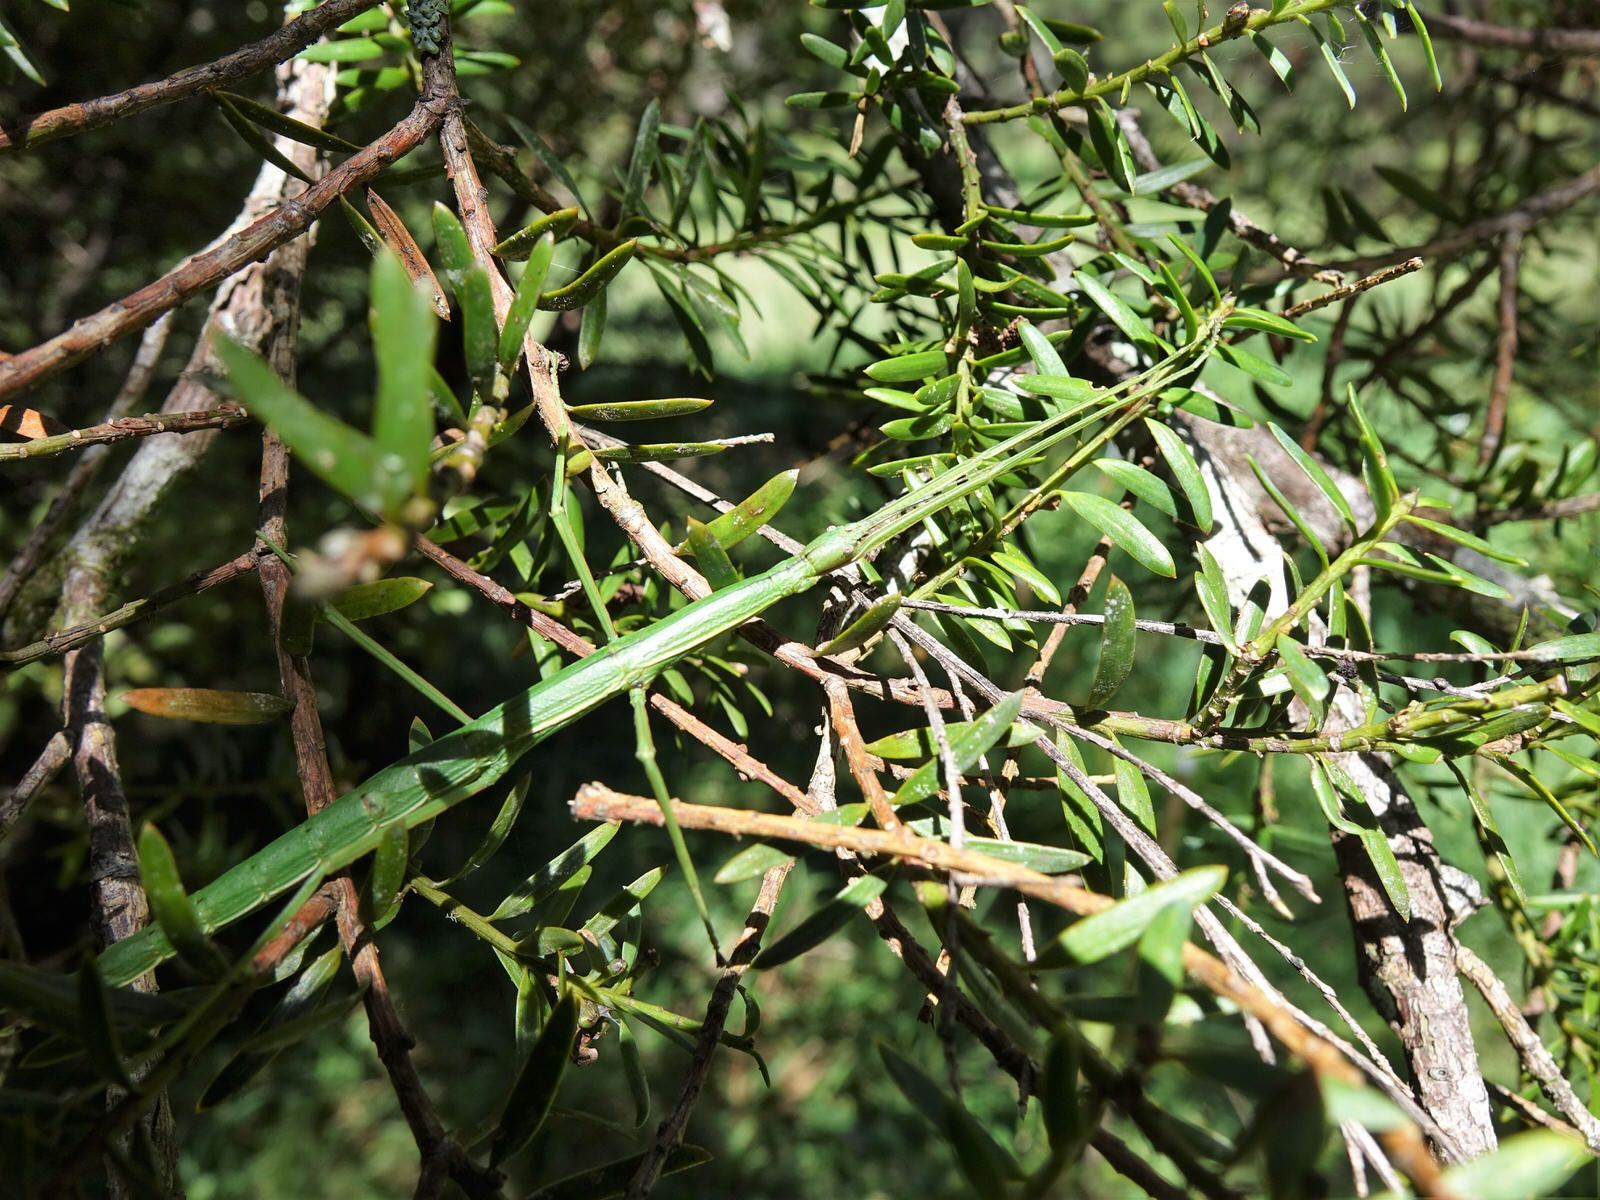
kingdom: Animalia
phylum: Arthropoda
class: Insecta
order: Phasmida
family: Phasmatidae
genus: Clitarchus
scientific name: Clitarchus hookeri
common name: Smooth stick insect
